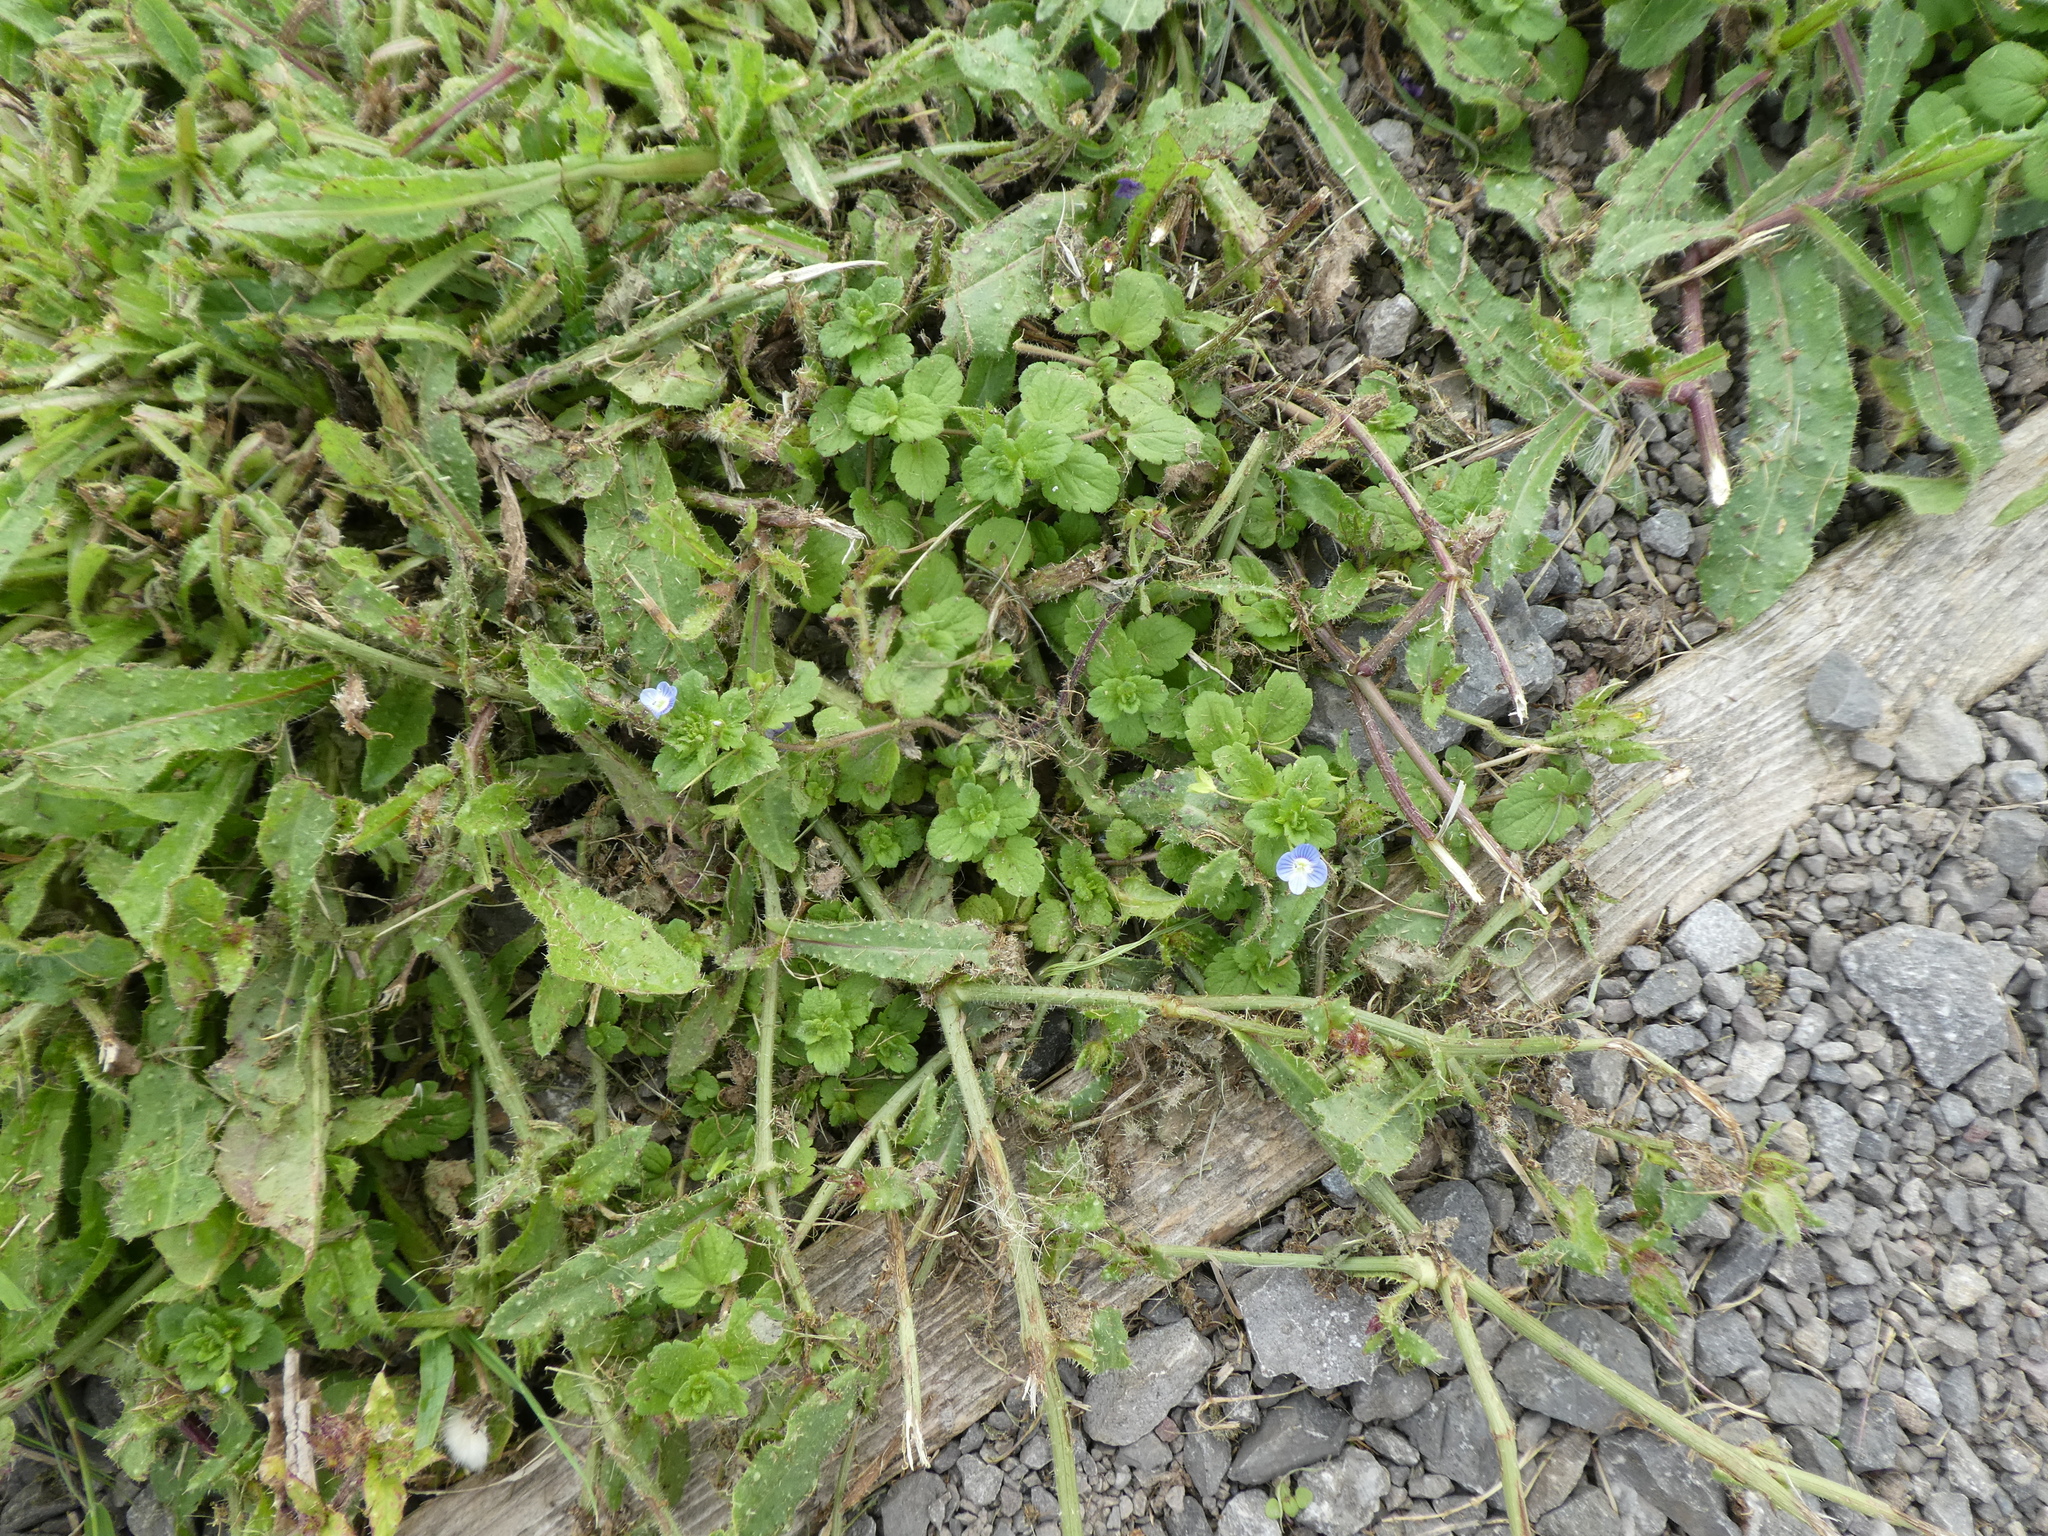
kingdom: Plantae
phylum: Tracheophyta
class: Magnoliopsida
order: Lamiales
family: Plantaginaceae
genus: Veronica
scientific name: Veronica persica
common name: Common field-speedwell
